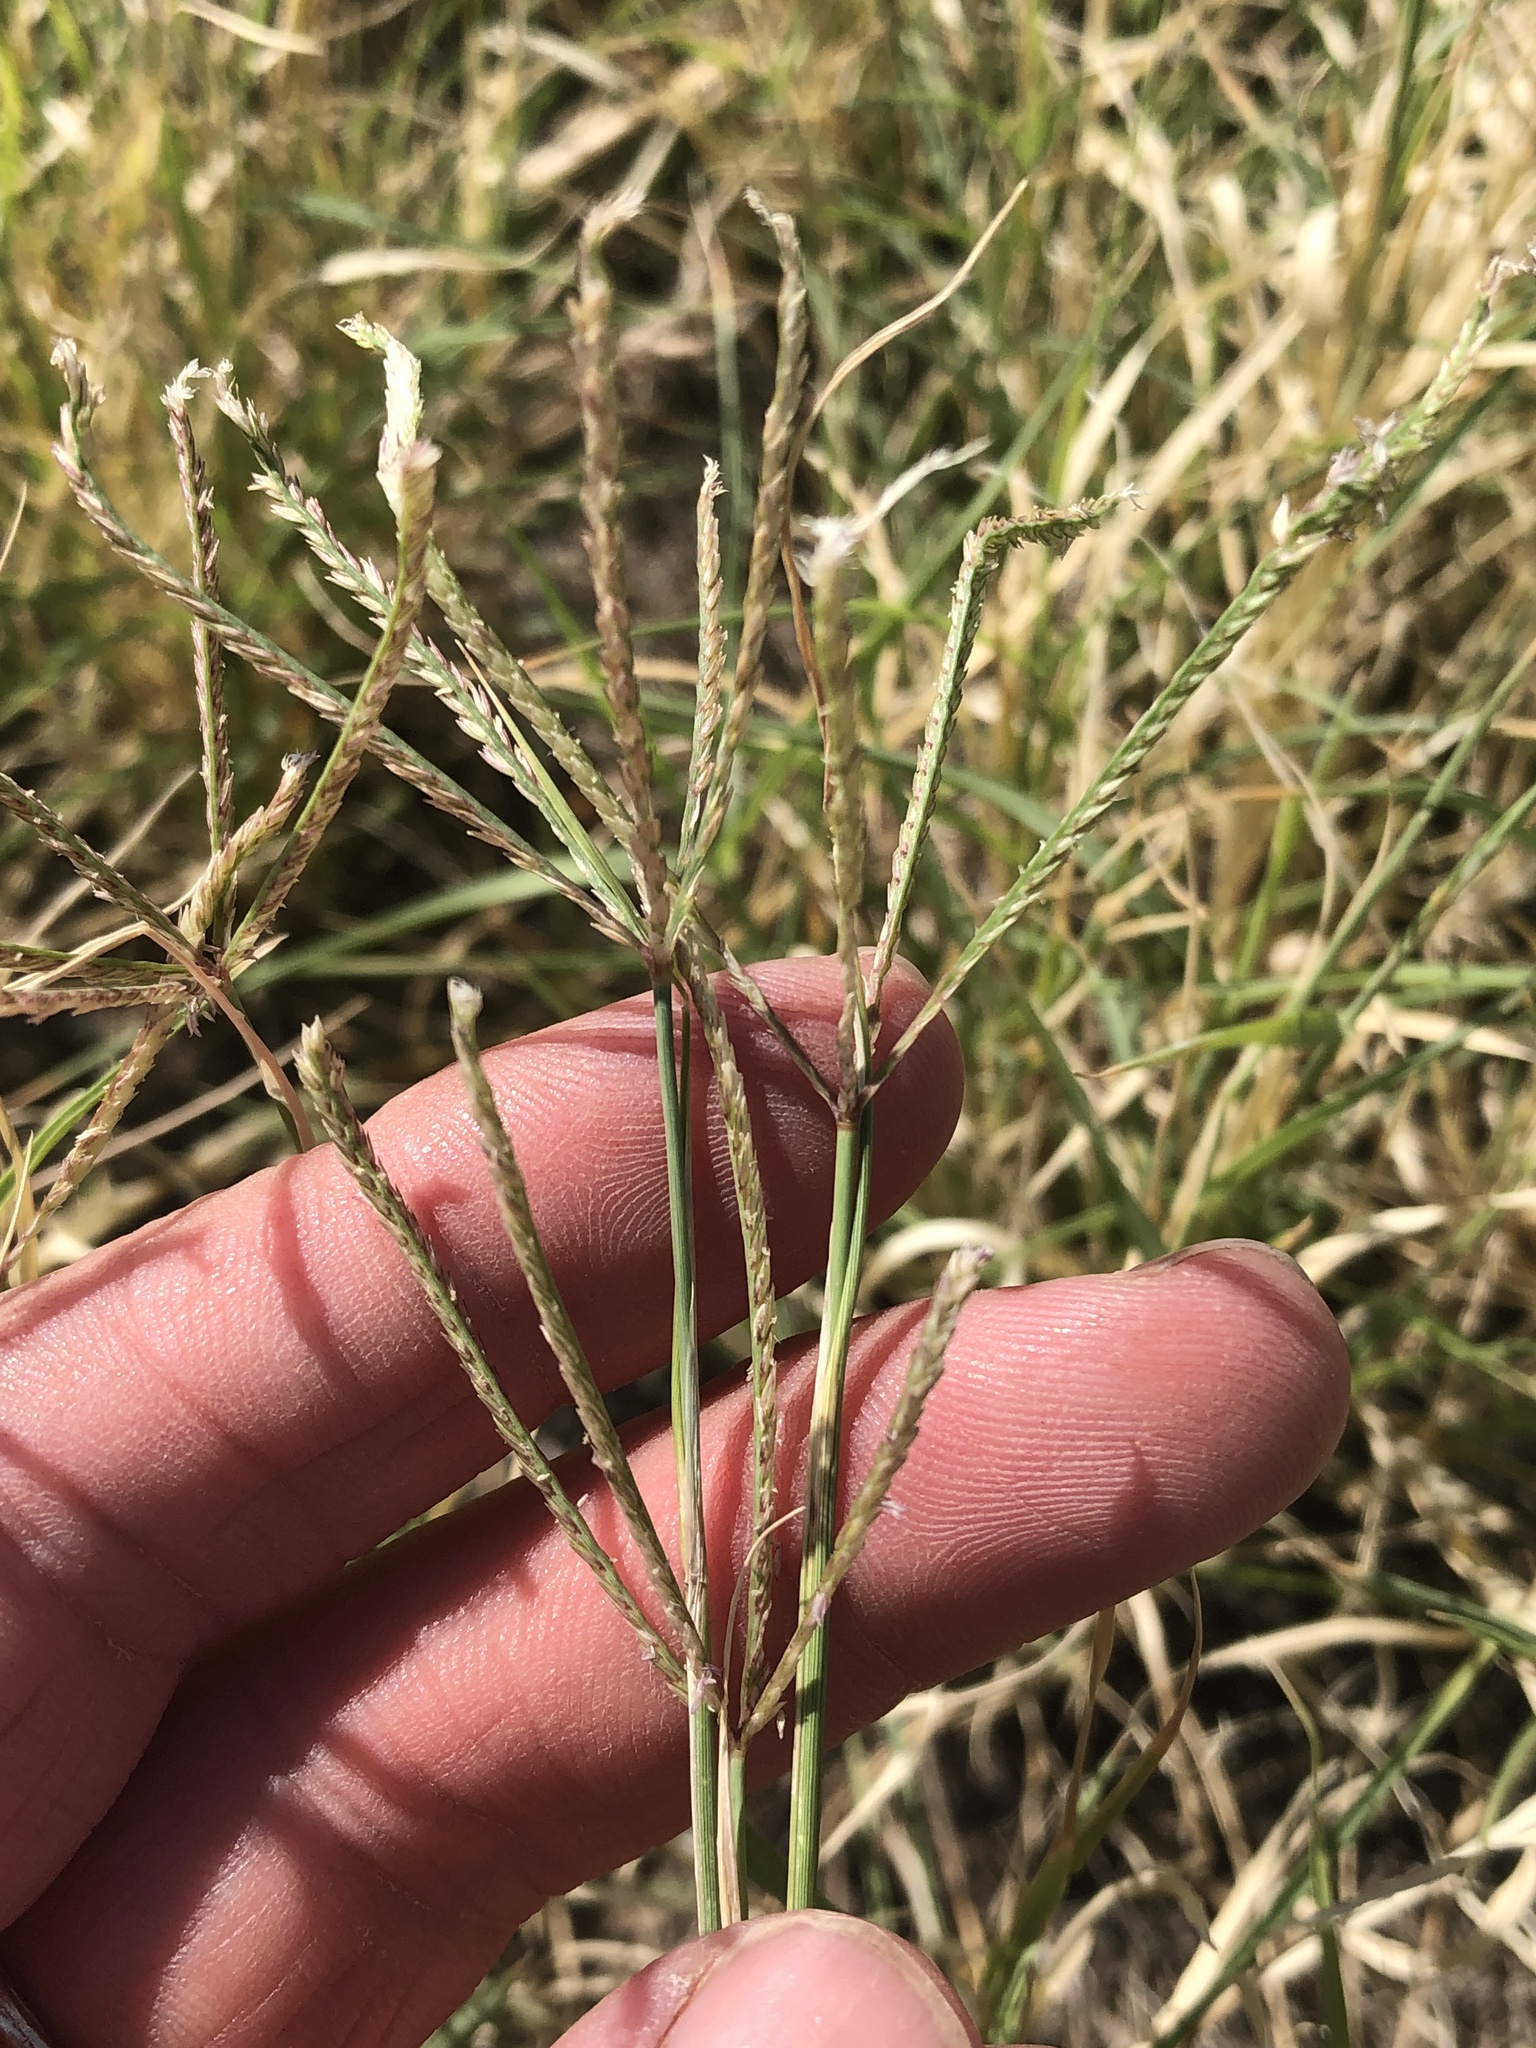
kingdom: Plantae
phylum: Tracheophyta
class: Liliopsida
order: Poales
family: Poaceae
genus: Cynodon
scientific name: Cynodon dactylon
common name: Bermuda grass
